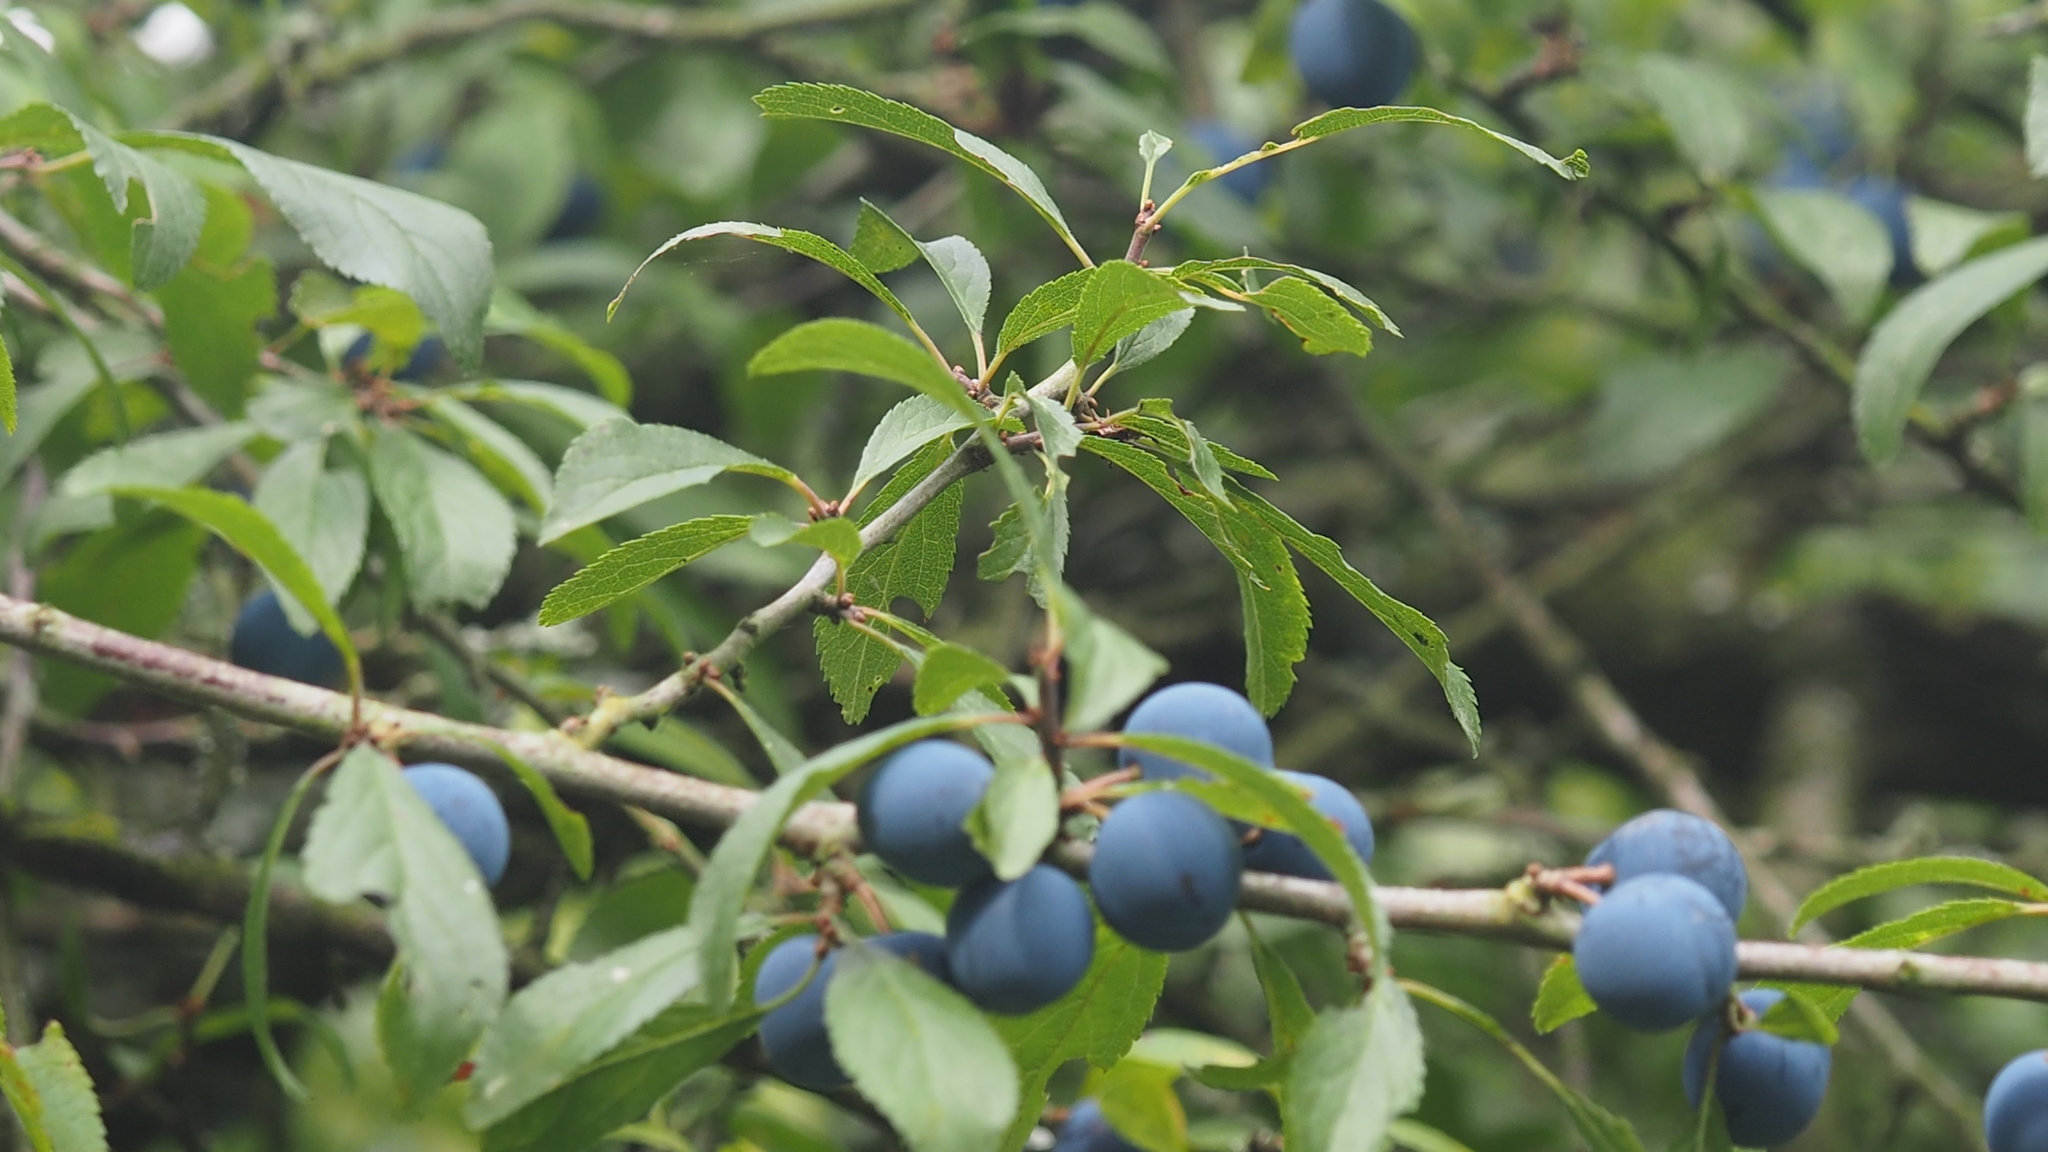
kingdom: Plantae
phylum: Tracheophyta
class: Magnoliopsida
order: Rosales
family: Rosaceae
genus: Prunus
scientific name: Prunus spinosa
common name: Blackthorn
